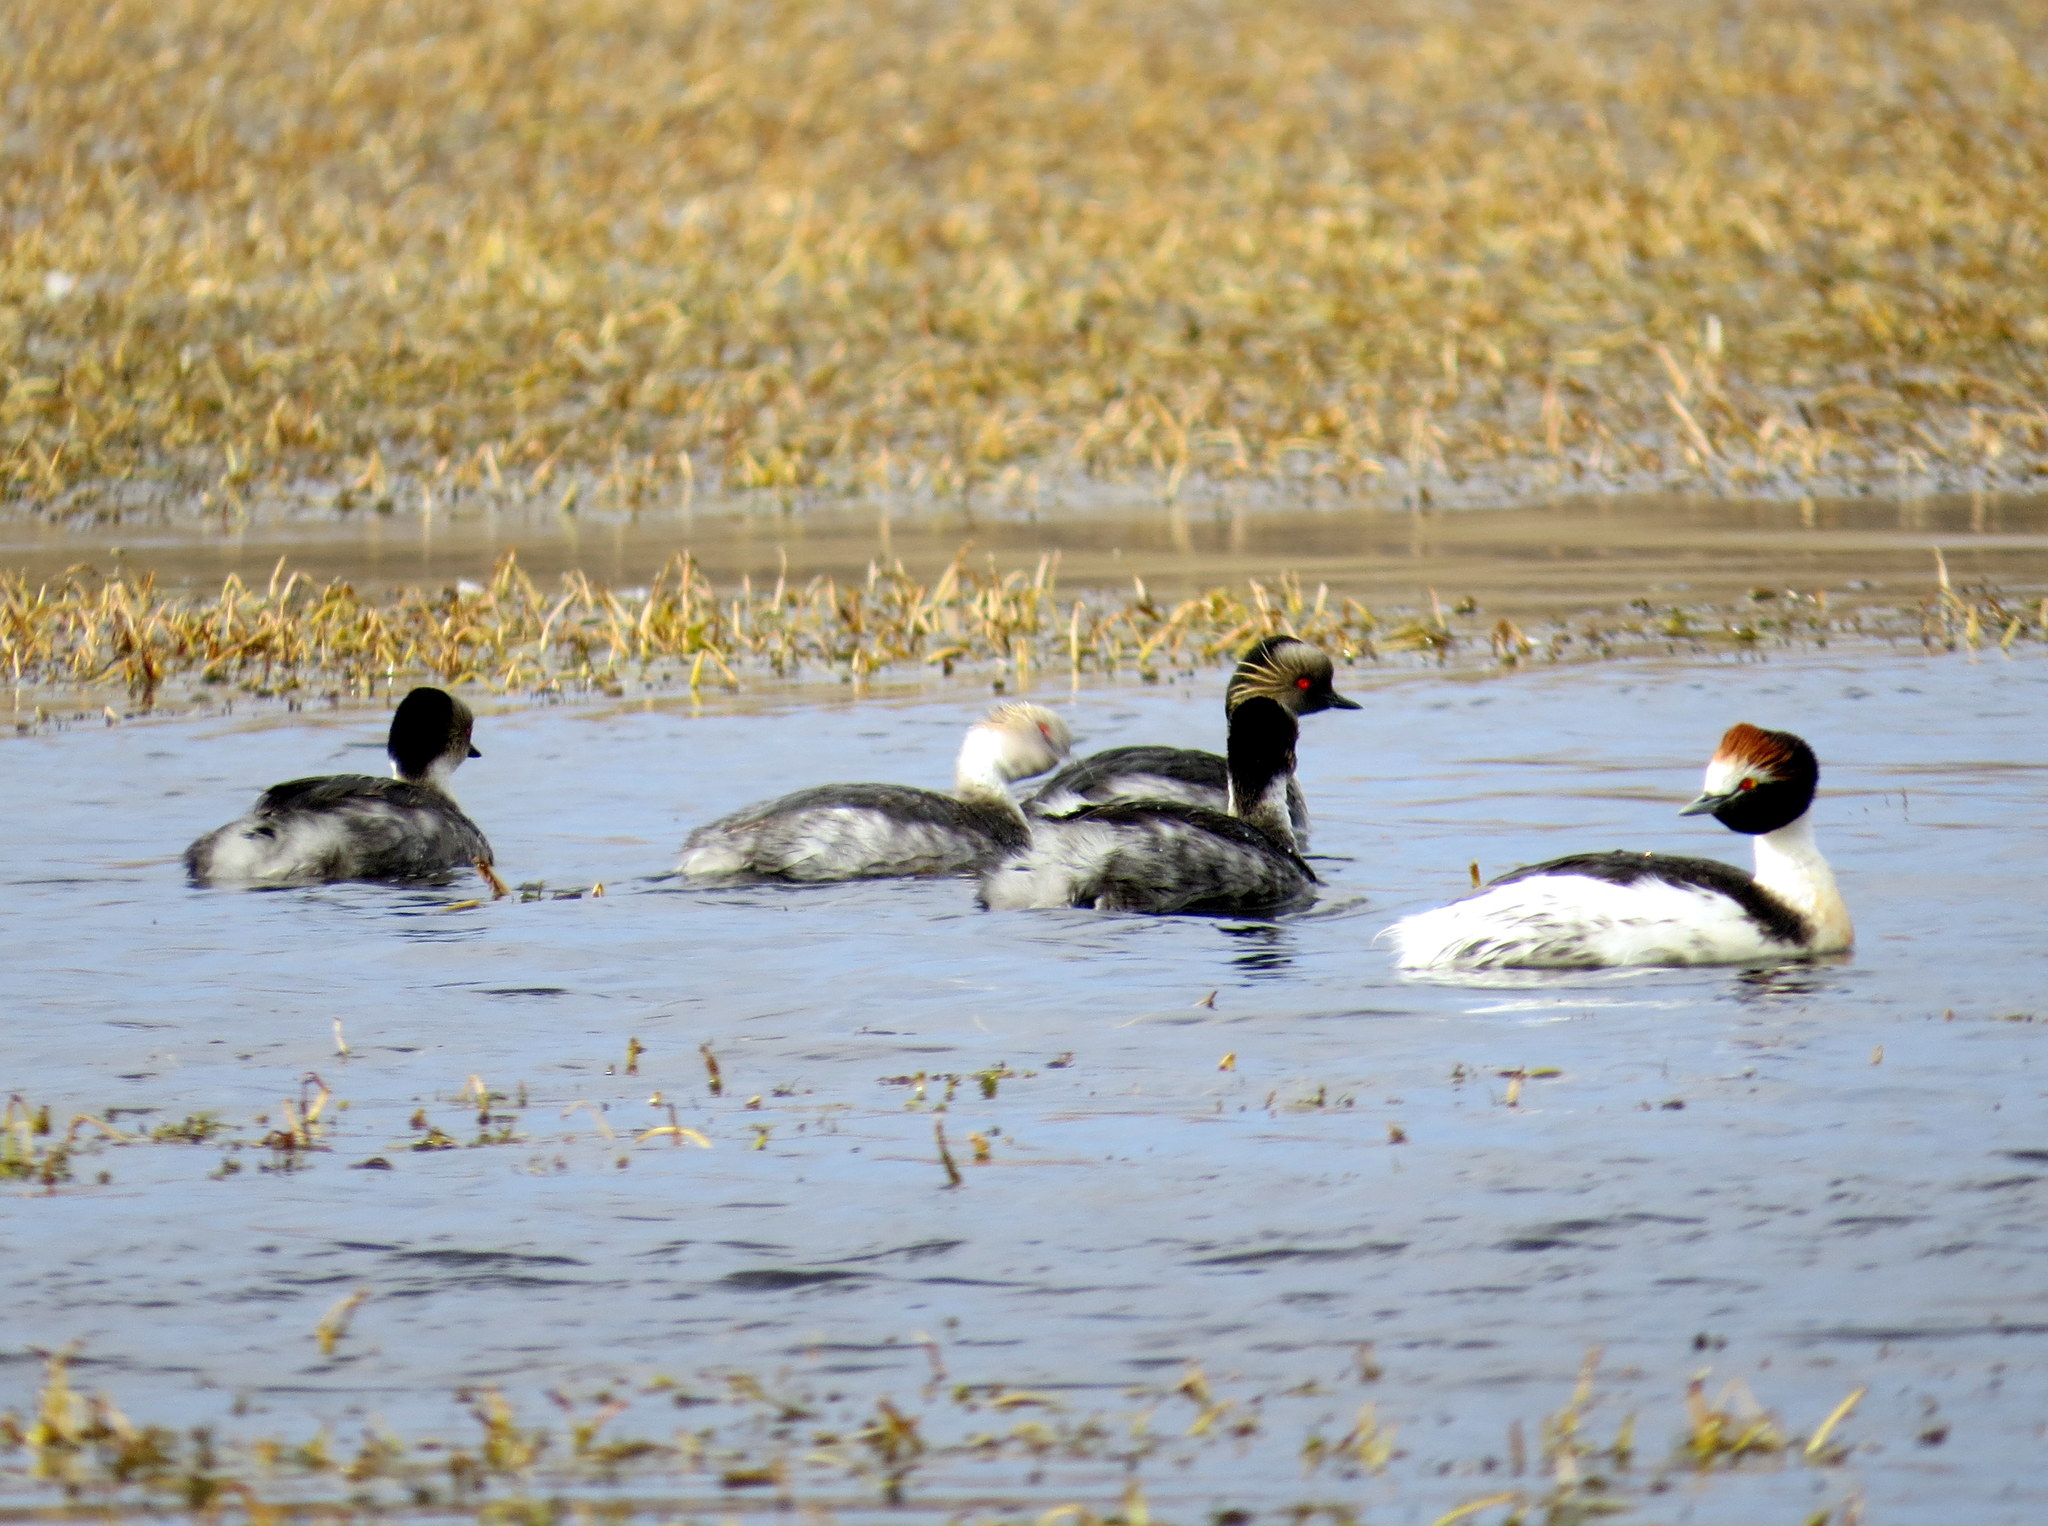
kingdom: Animalia
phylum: Chordata
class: Aves
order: Podicipediformes
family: Podicipedidae
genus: Podiceps
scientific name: Podiceps gallardoi
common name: Hooded grebe
